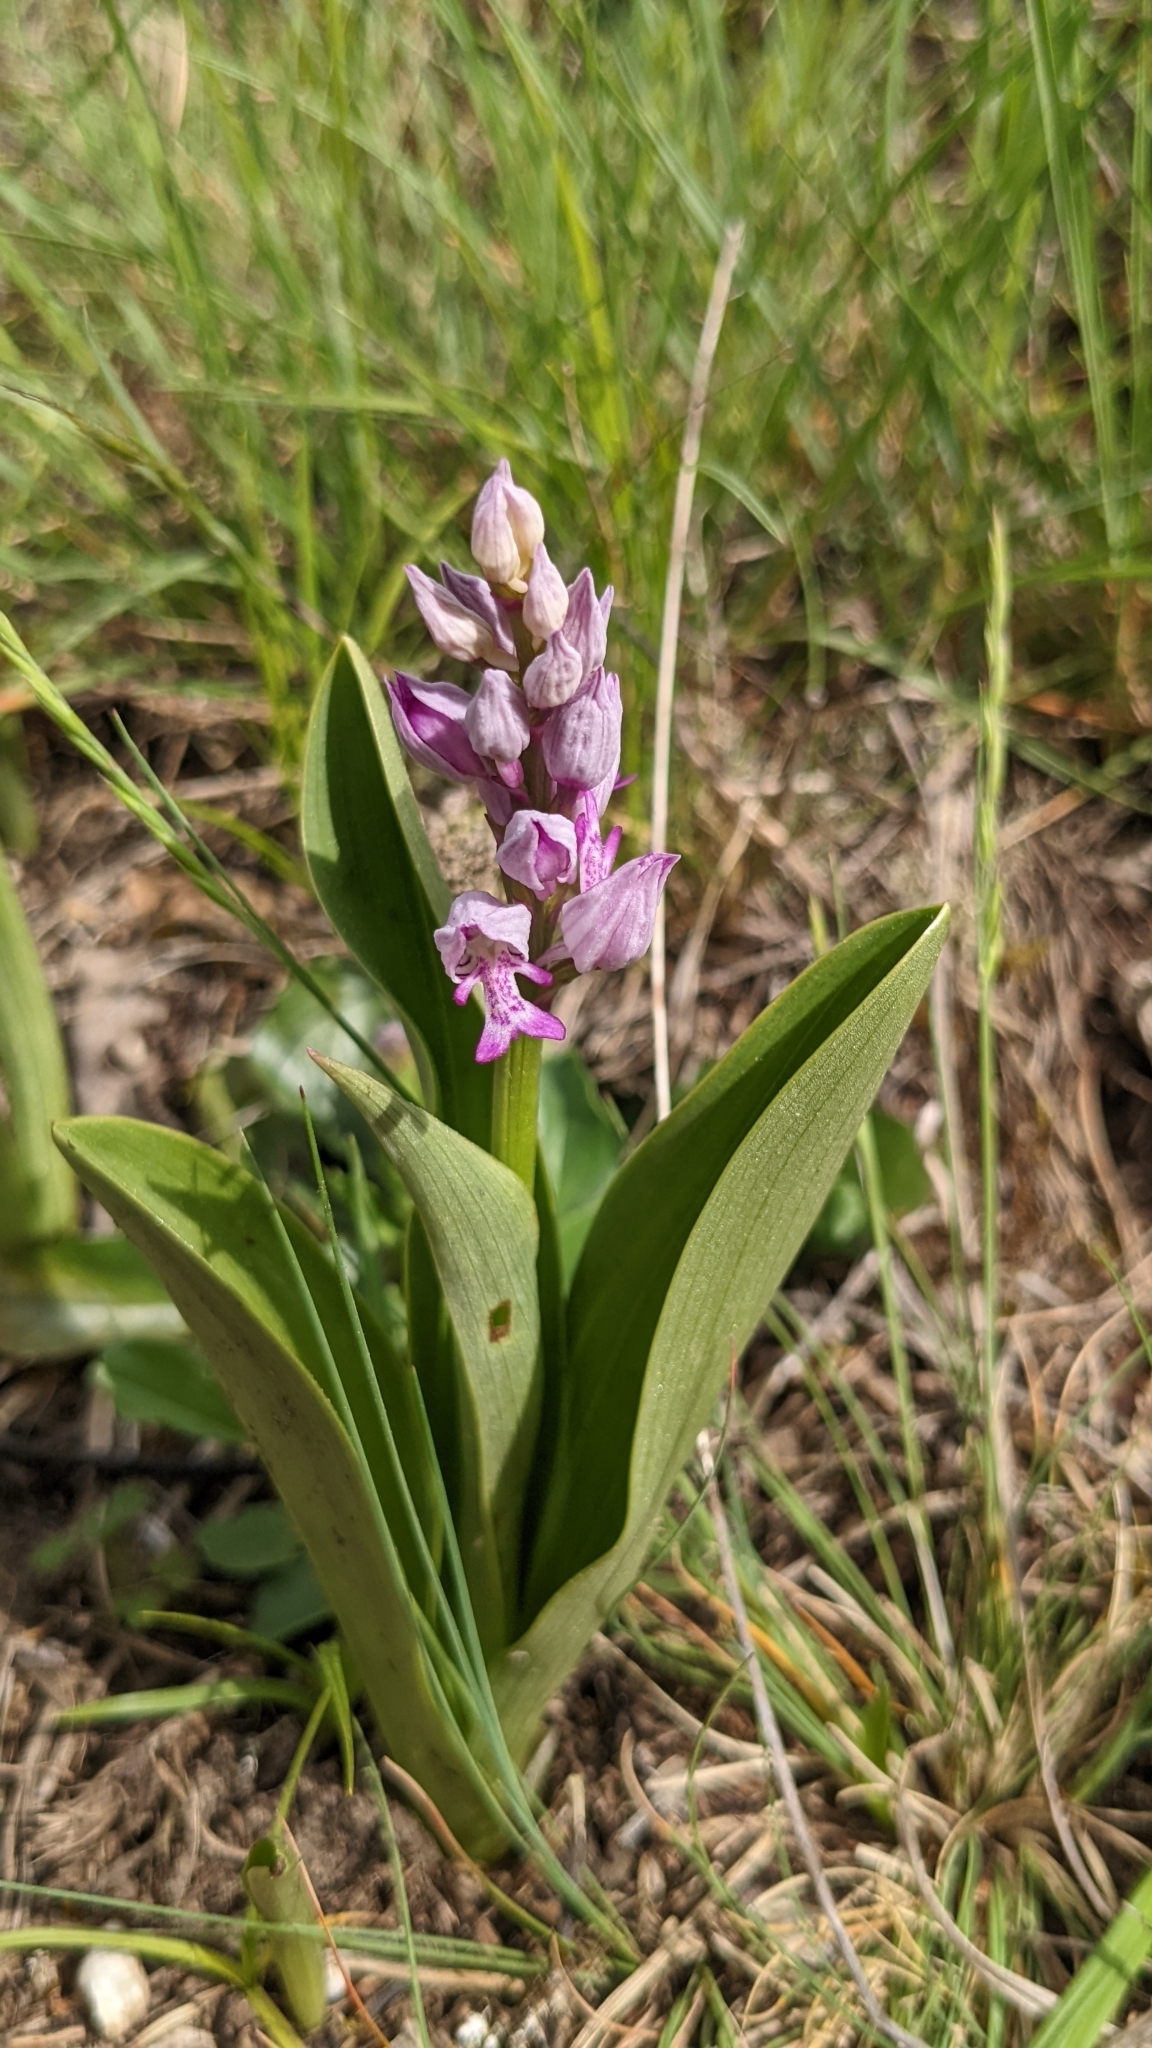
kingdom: Plantae
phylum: Tracheophyta
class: Liliopsida
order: Asparagales
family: Orchidaceae
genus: Orchis
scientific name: Orchis militaris
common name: Military orchid
